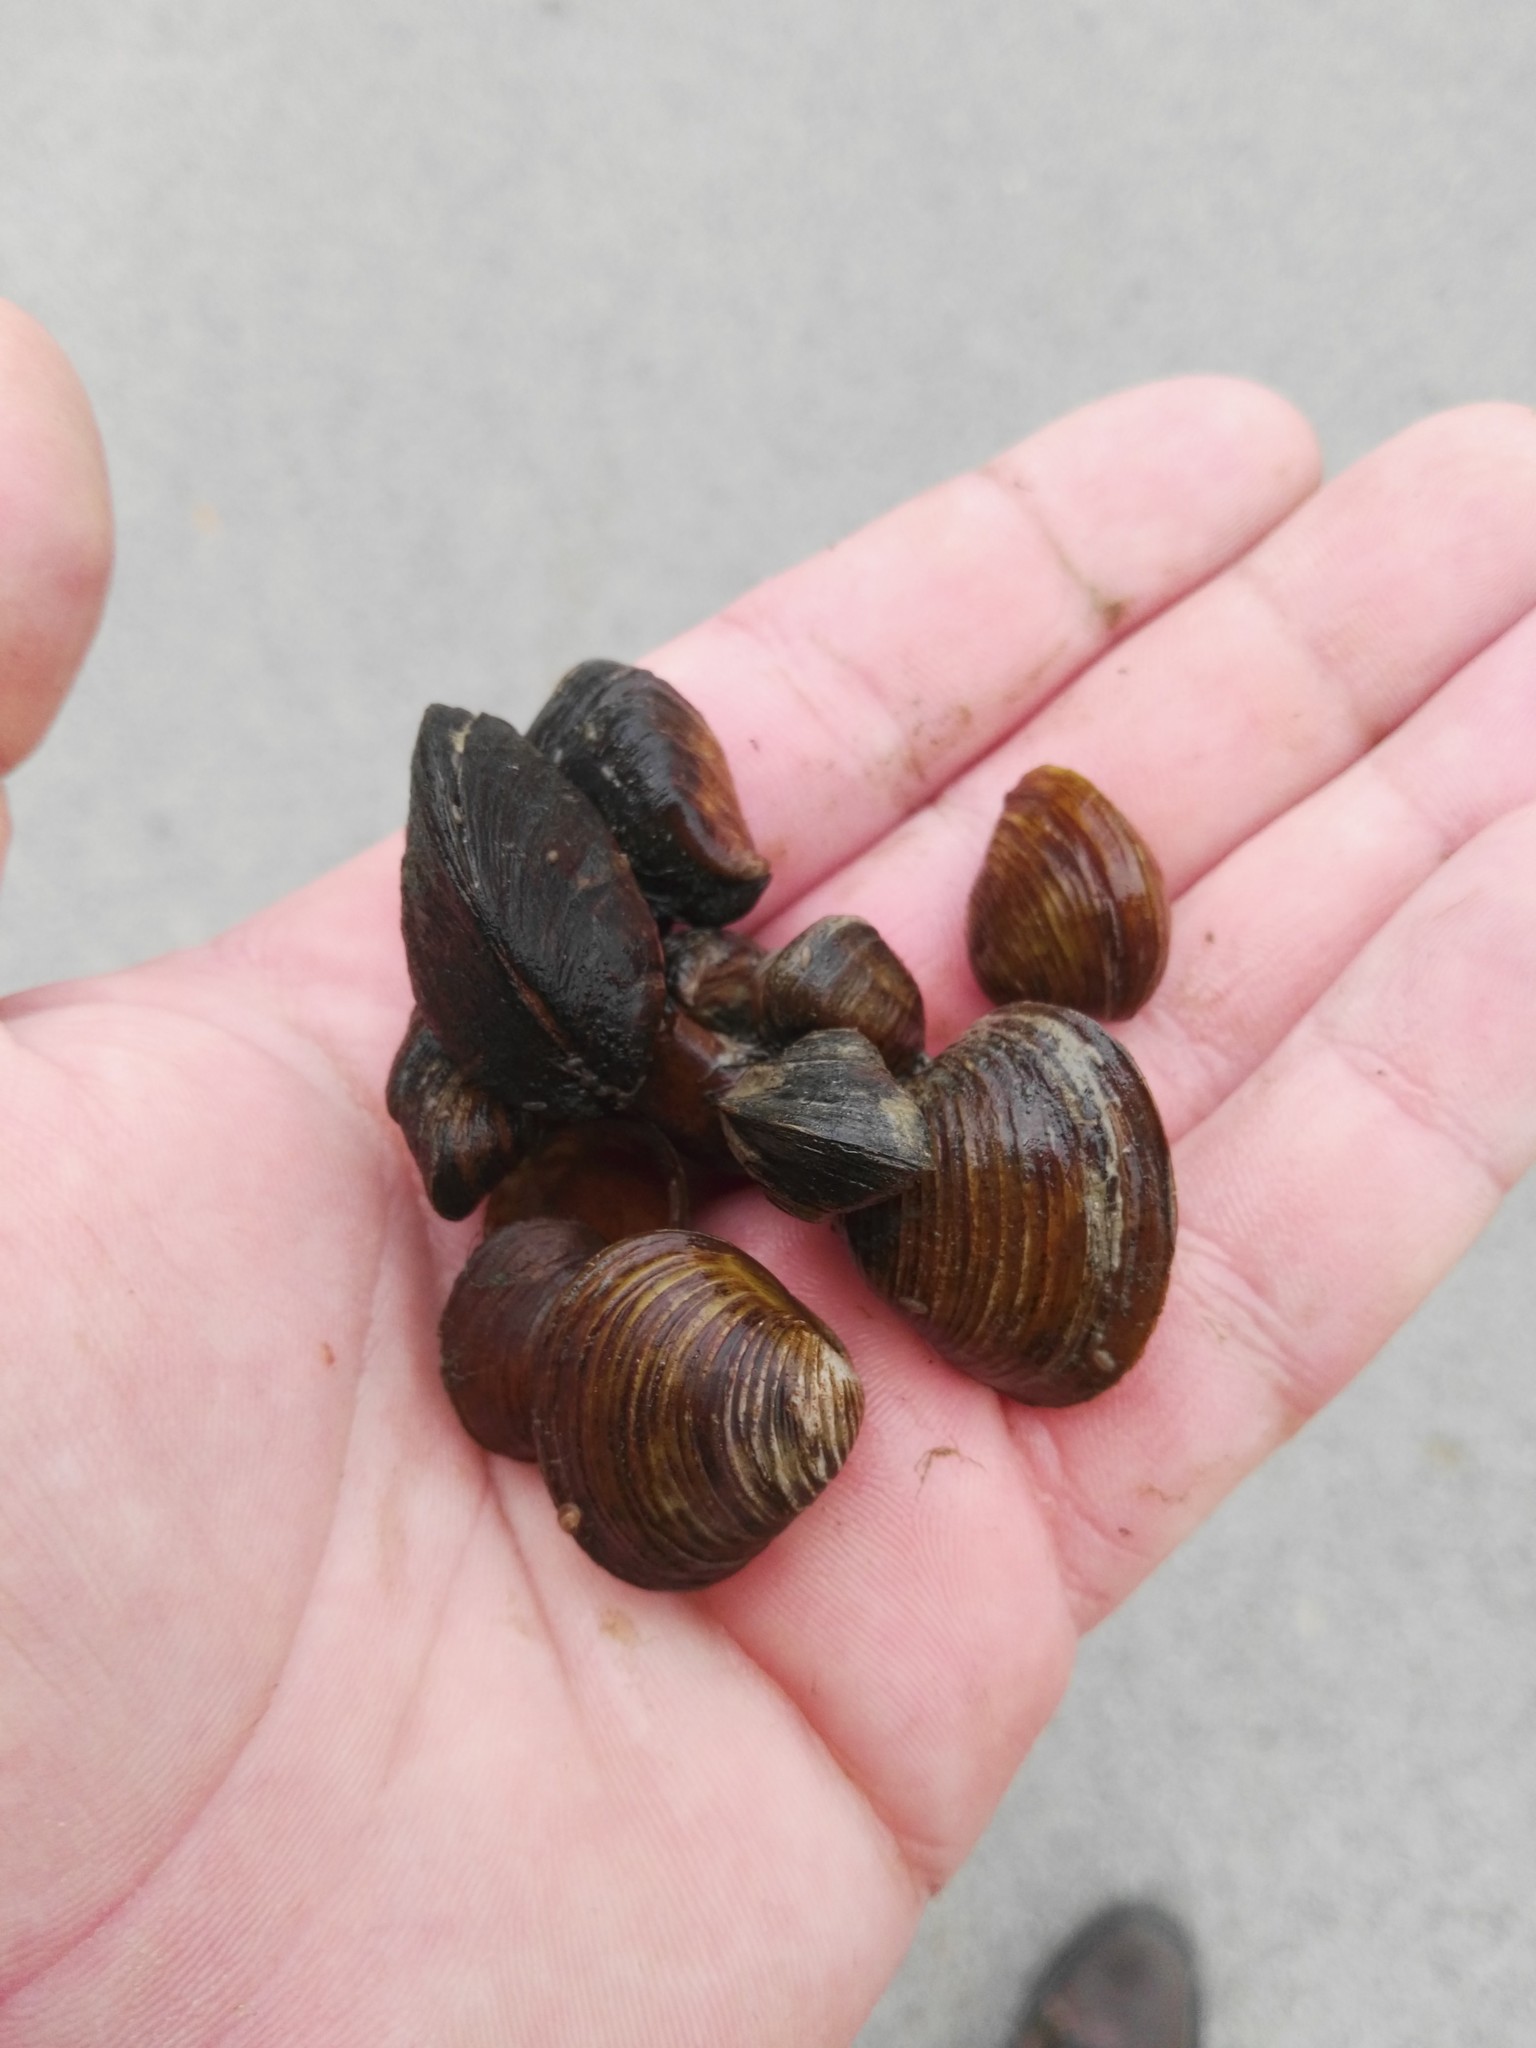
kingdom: Animalia
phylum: Mollusca
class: Bivalvia
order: Myida
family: Dreissenidae
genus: Dreissena
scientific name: Dreissena polymorpha
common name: Zebra mussel
